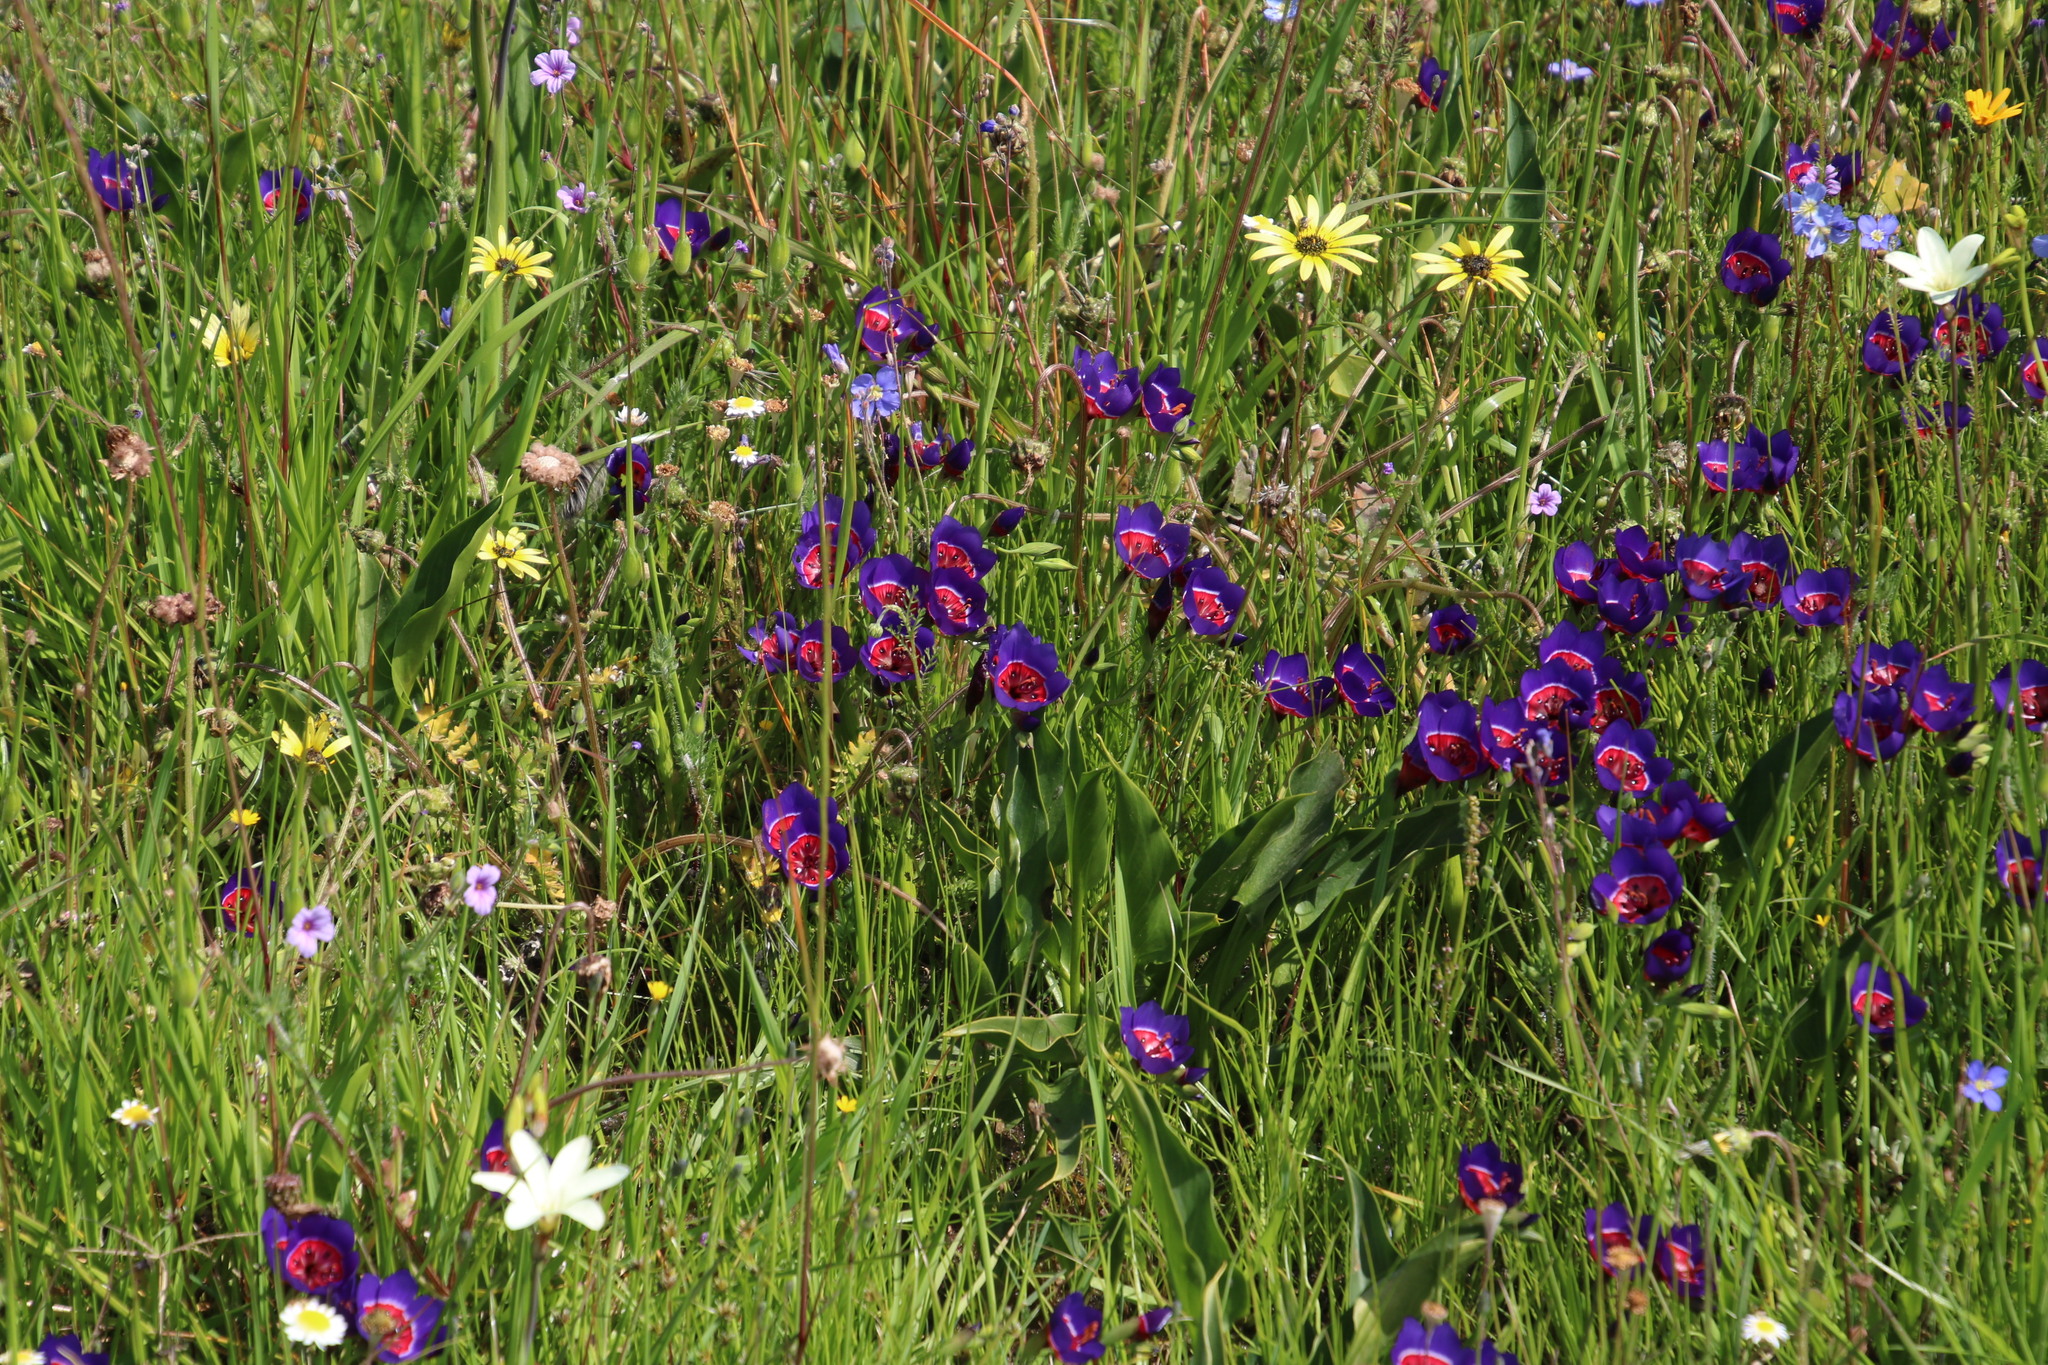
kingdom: Plantae
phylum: Tracheophyta
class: Liliopsida
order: Asparagales
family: Iridaceae
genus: Geissorhiza
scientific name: Geissorhiza radians
